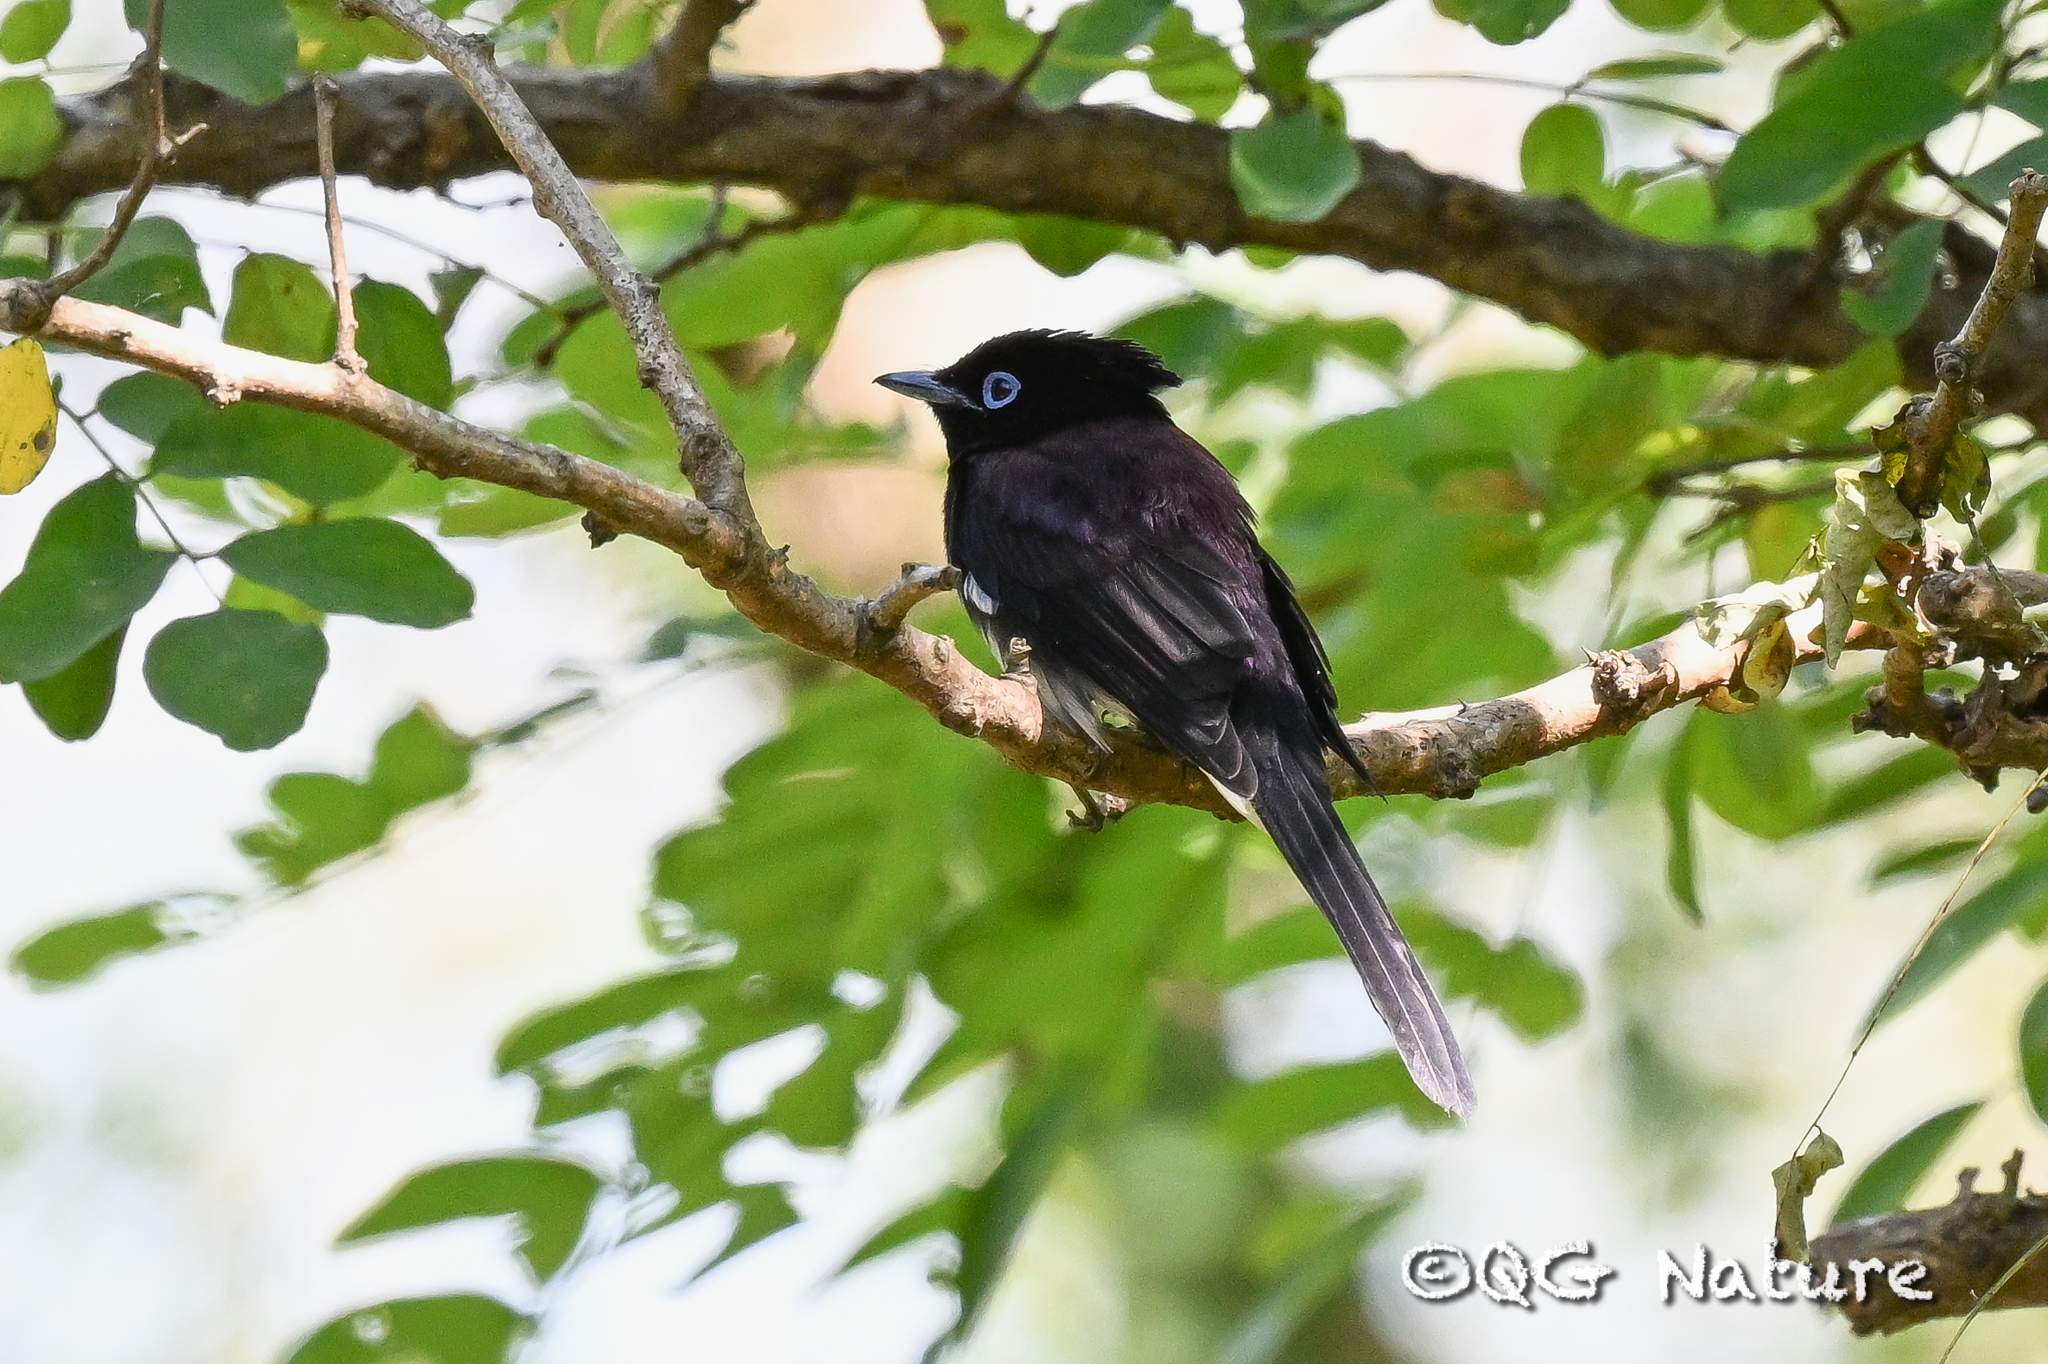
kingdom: Animalia
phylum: Chordata
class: Aves
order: Passeriformes
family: Monarchidae
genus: Terpsiphone
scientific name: Terpsiphone atrocaudata
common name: Japanese paradise flycatcher
